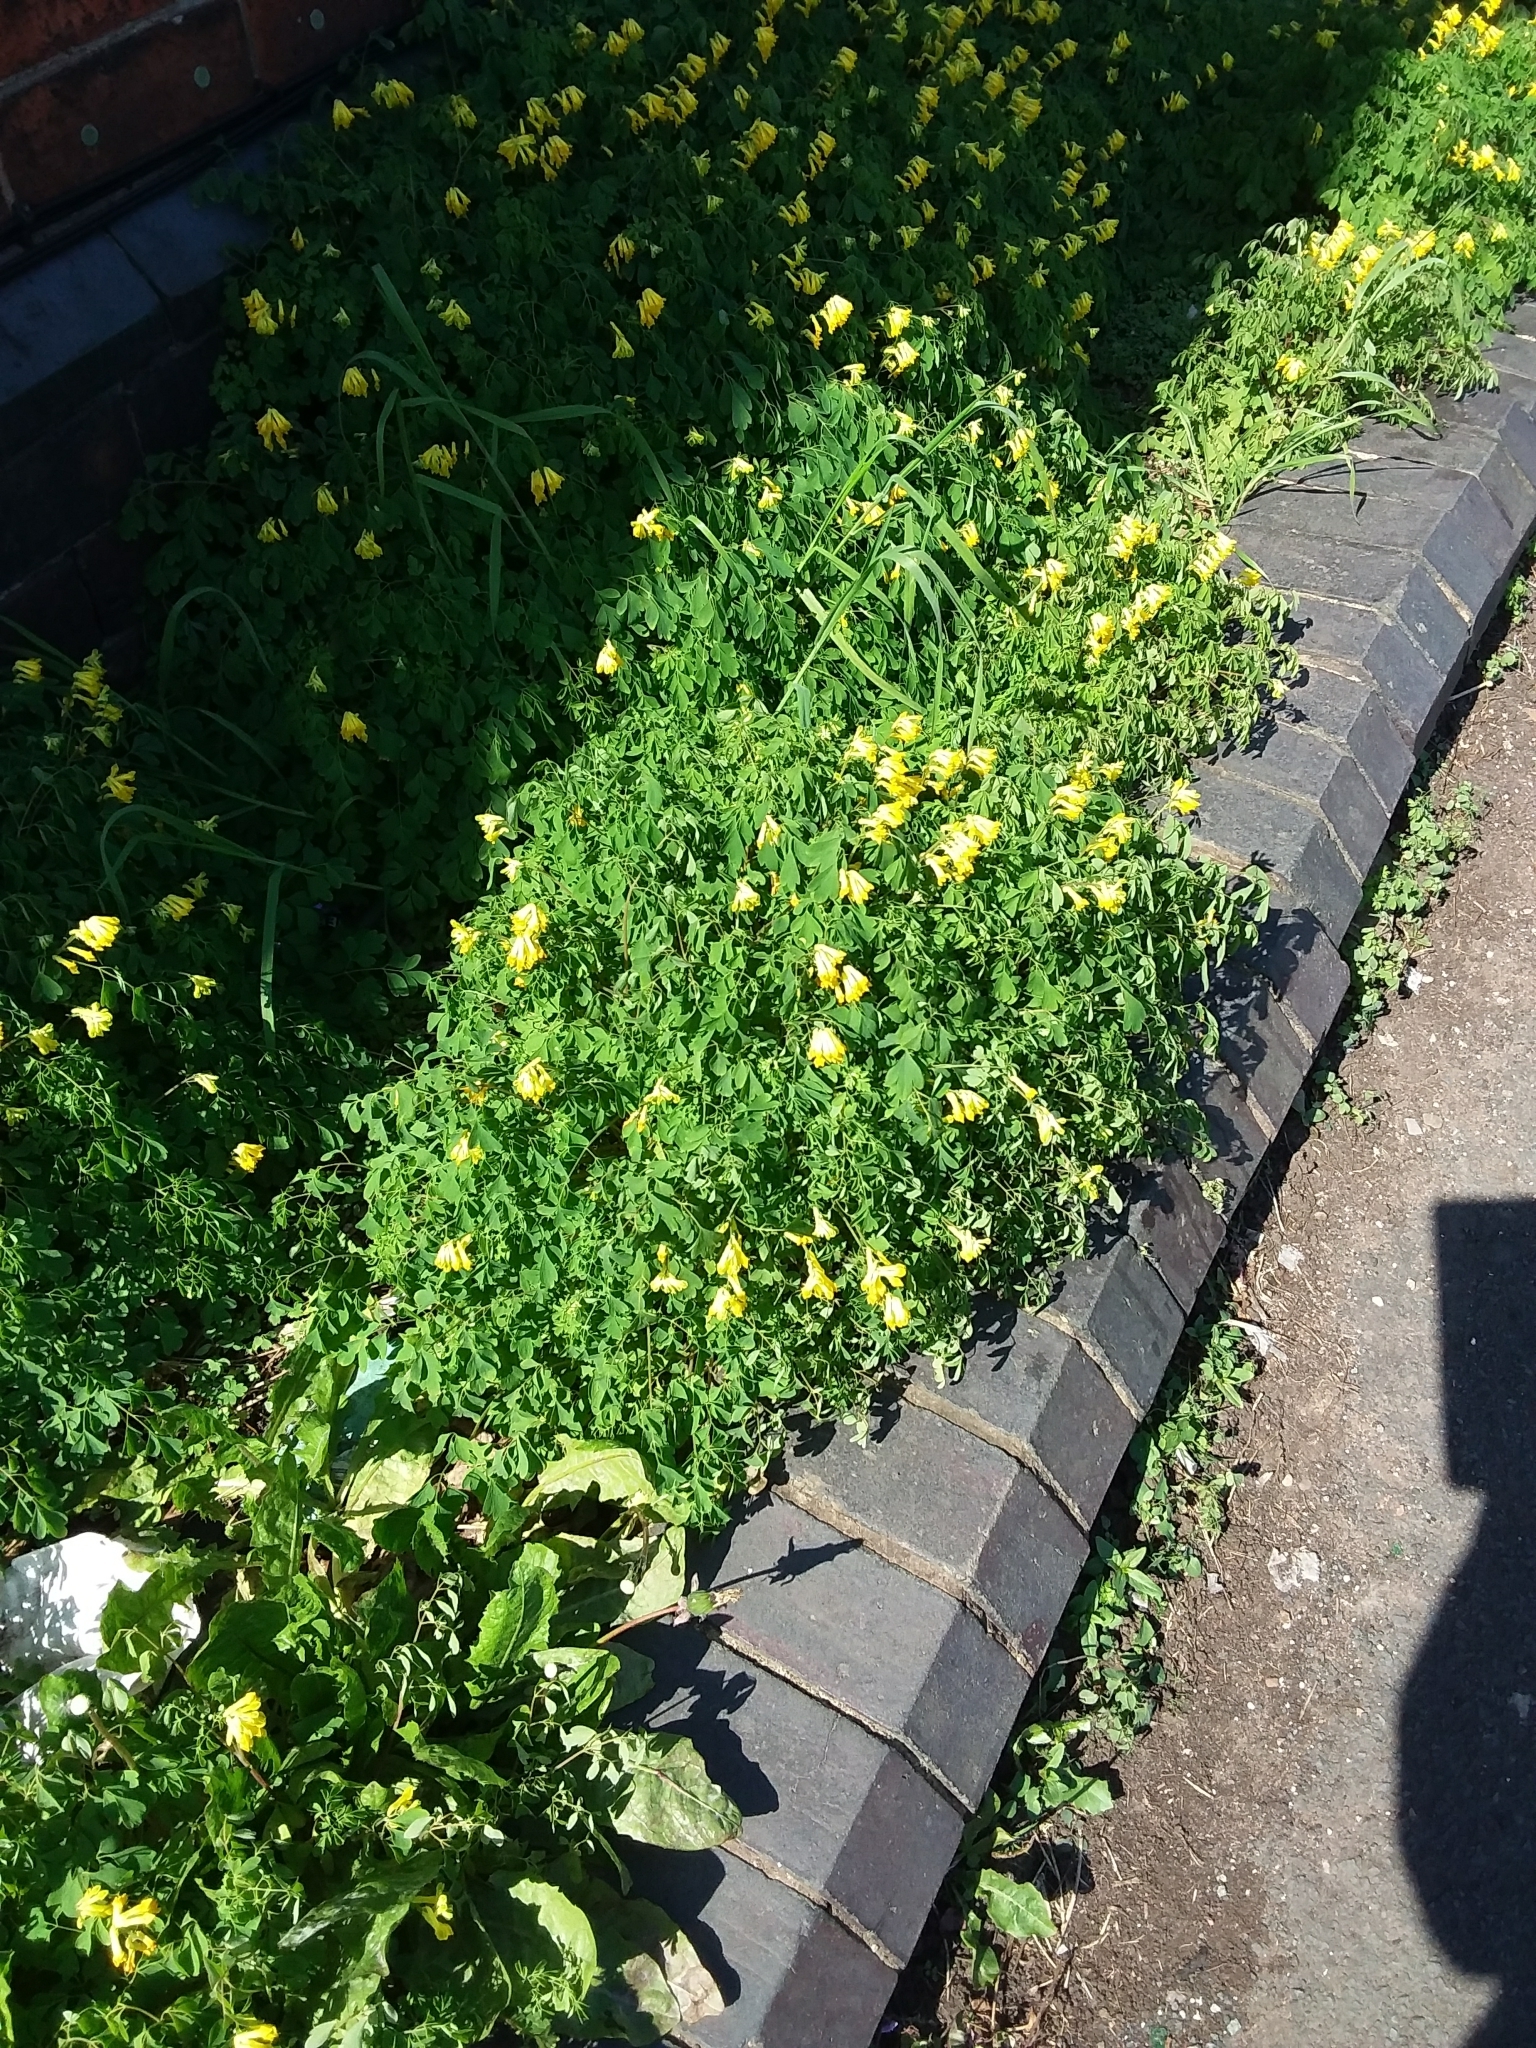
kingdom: Plantae
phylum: Tracheophyta
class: Magnoliopsida
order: Ranunculales
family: Papaveraceae
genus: Pseudofumaria
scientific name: Pseudofumaria lutea
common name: Yellow corydalis
